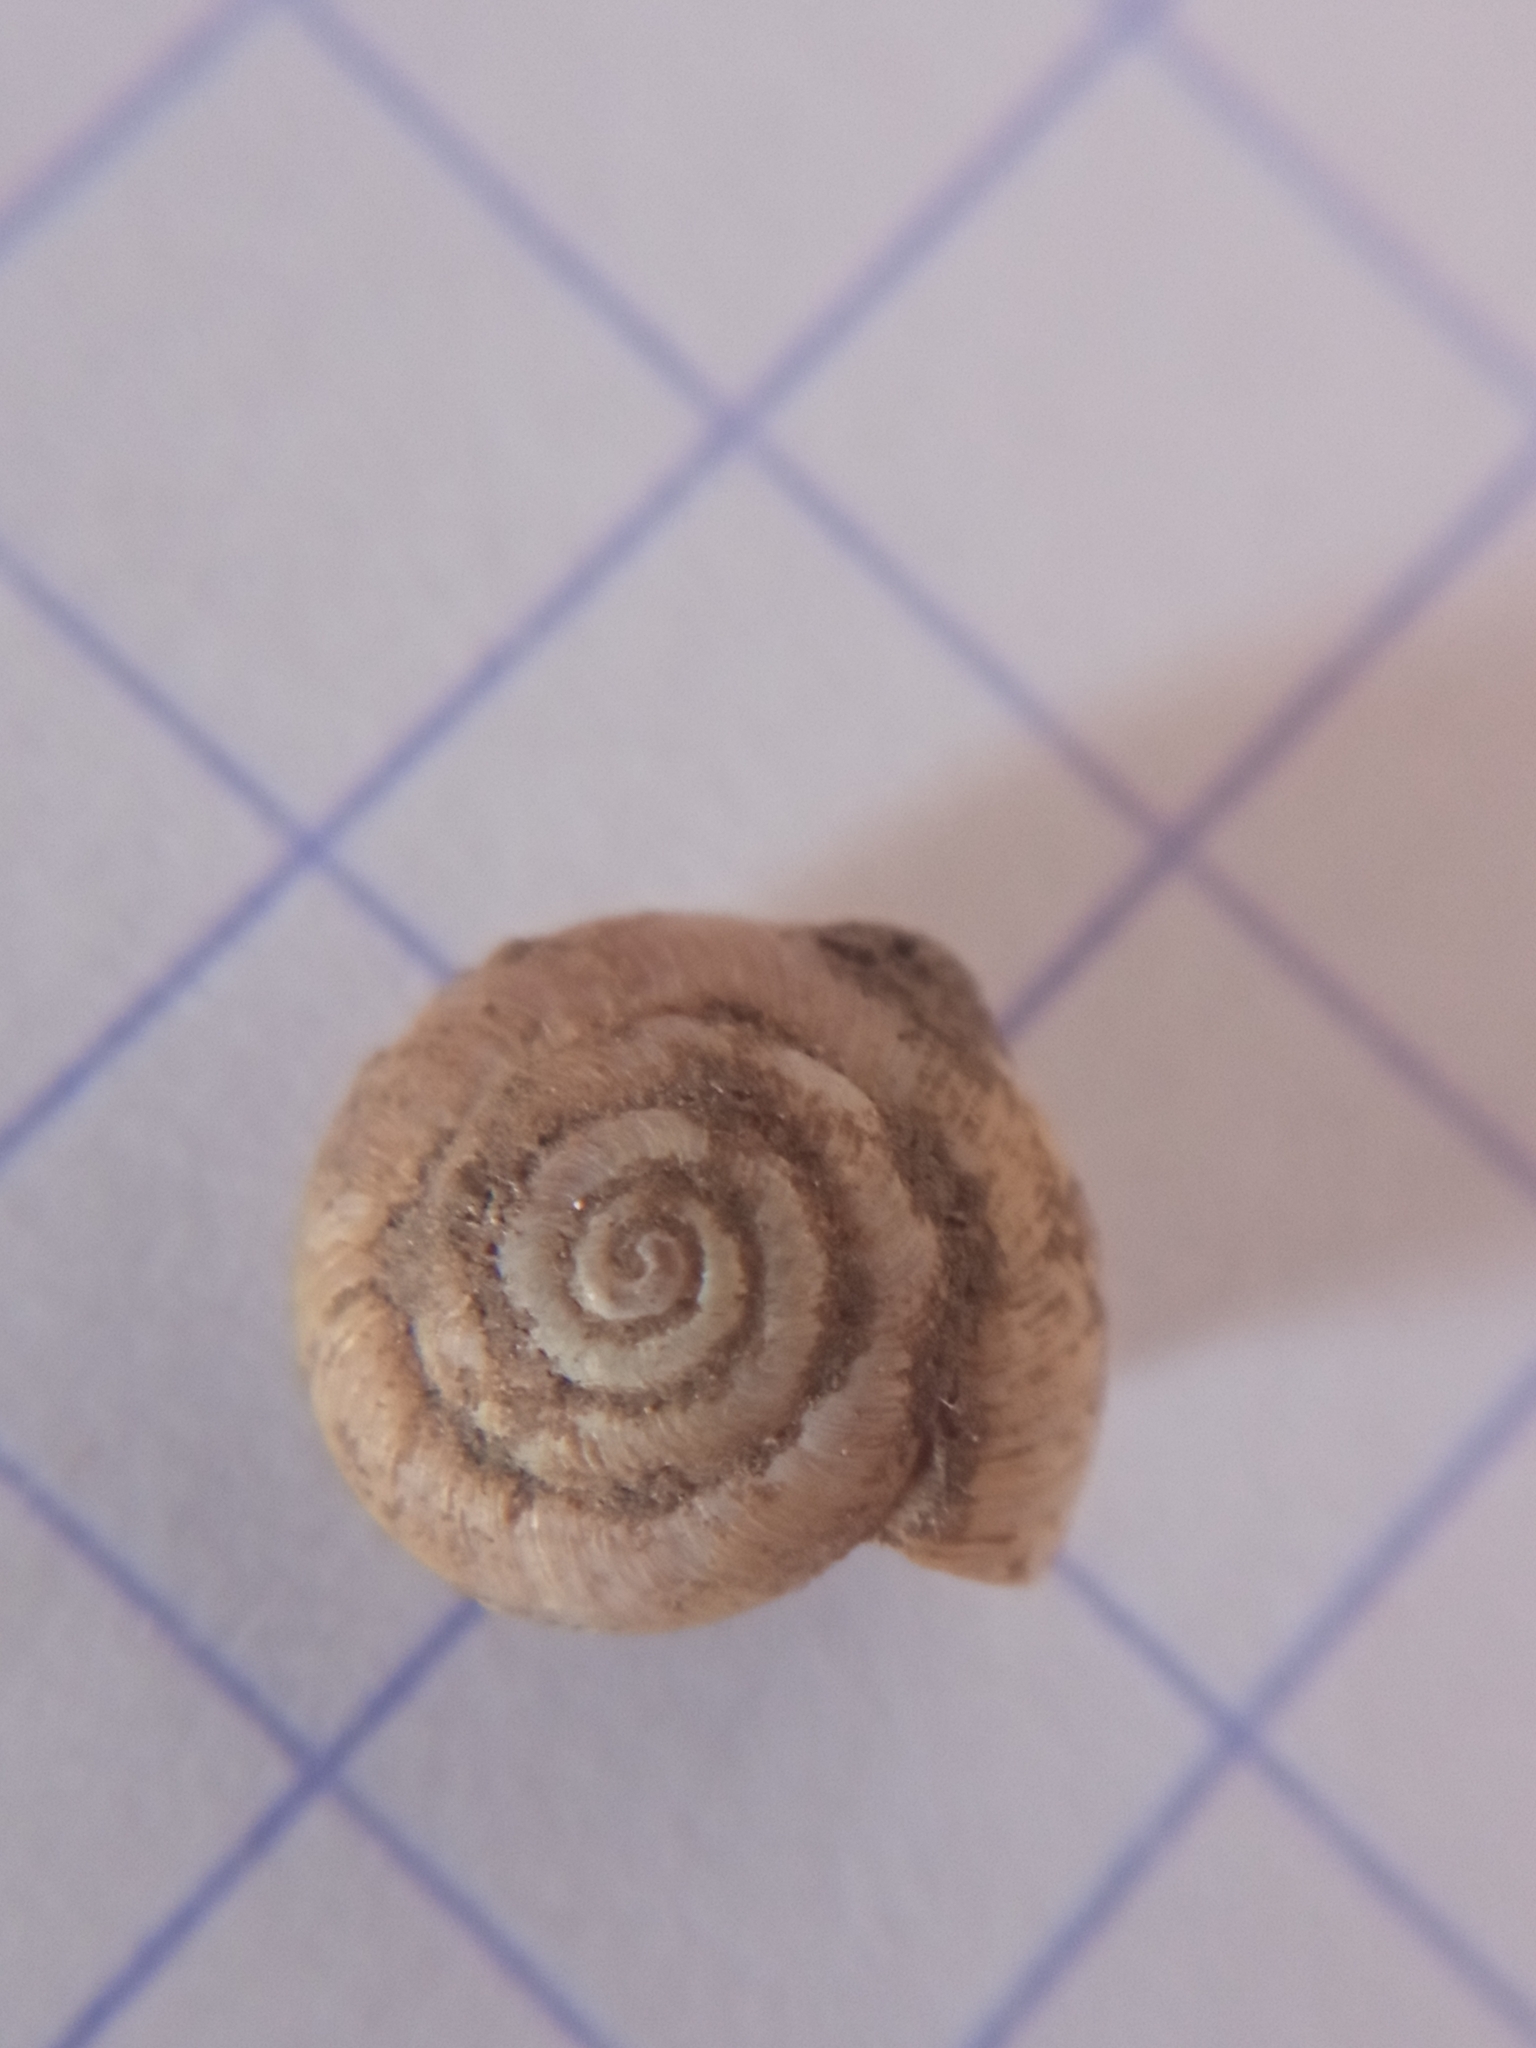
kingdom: Animalia
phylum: Mollusca
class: Gastropoda
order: Stylommatophora
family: Hygromiidae
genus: Trochulus
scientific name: Trochulus hispidus
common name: Hairy snail
